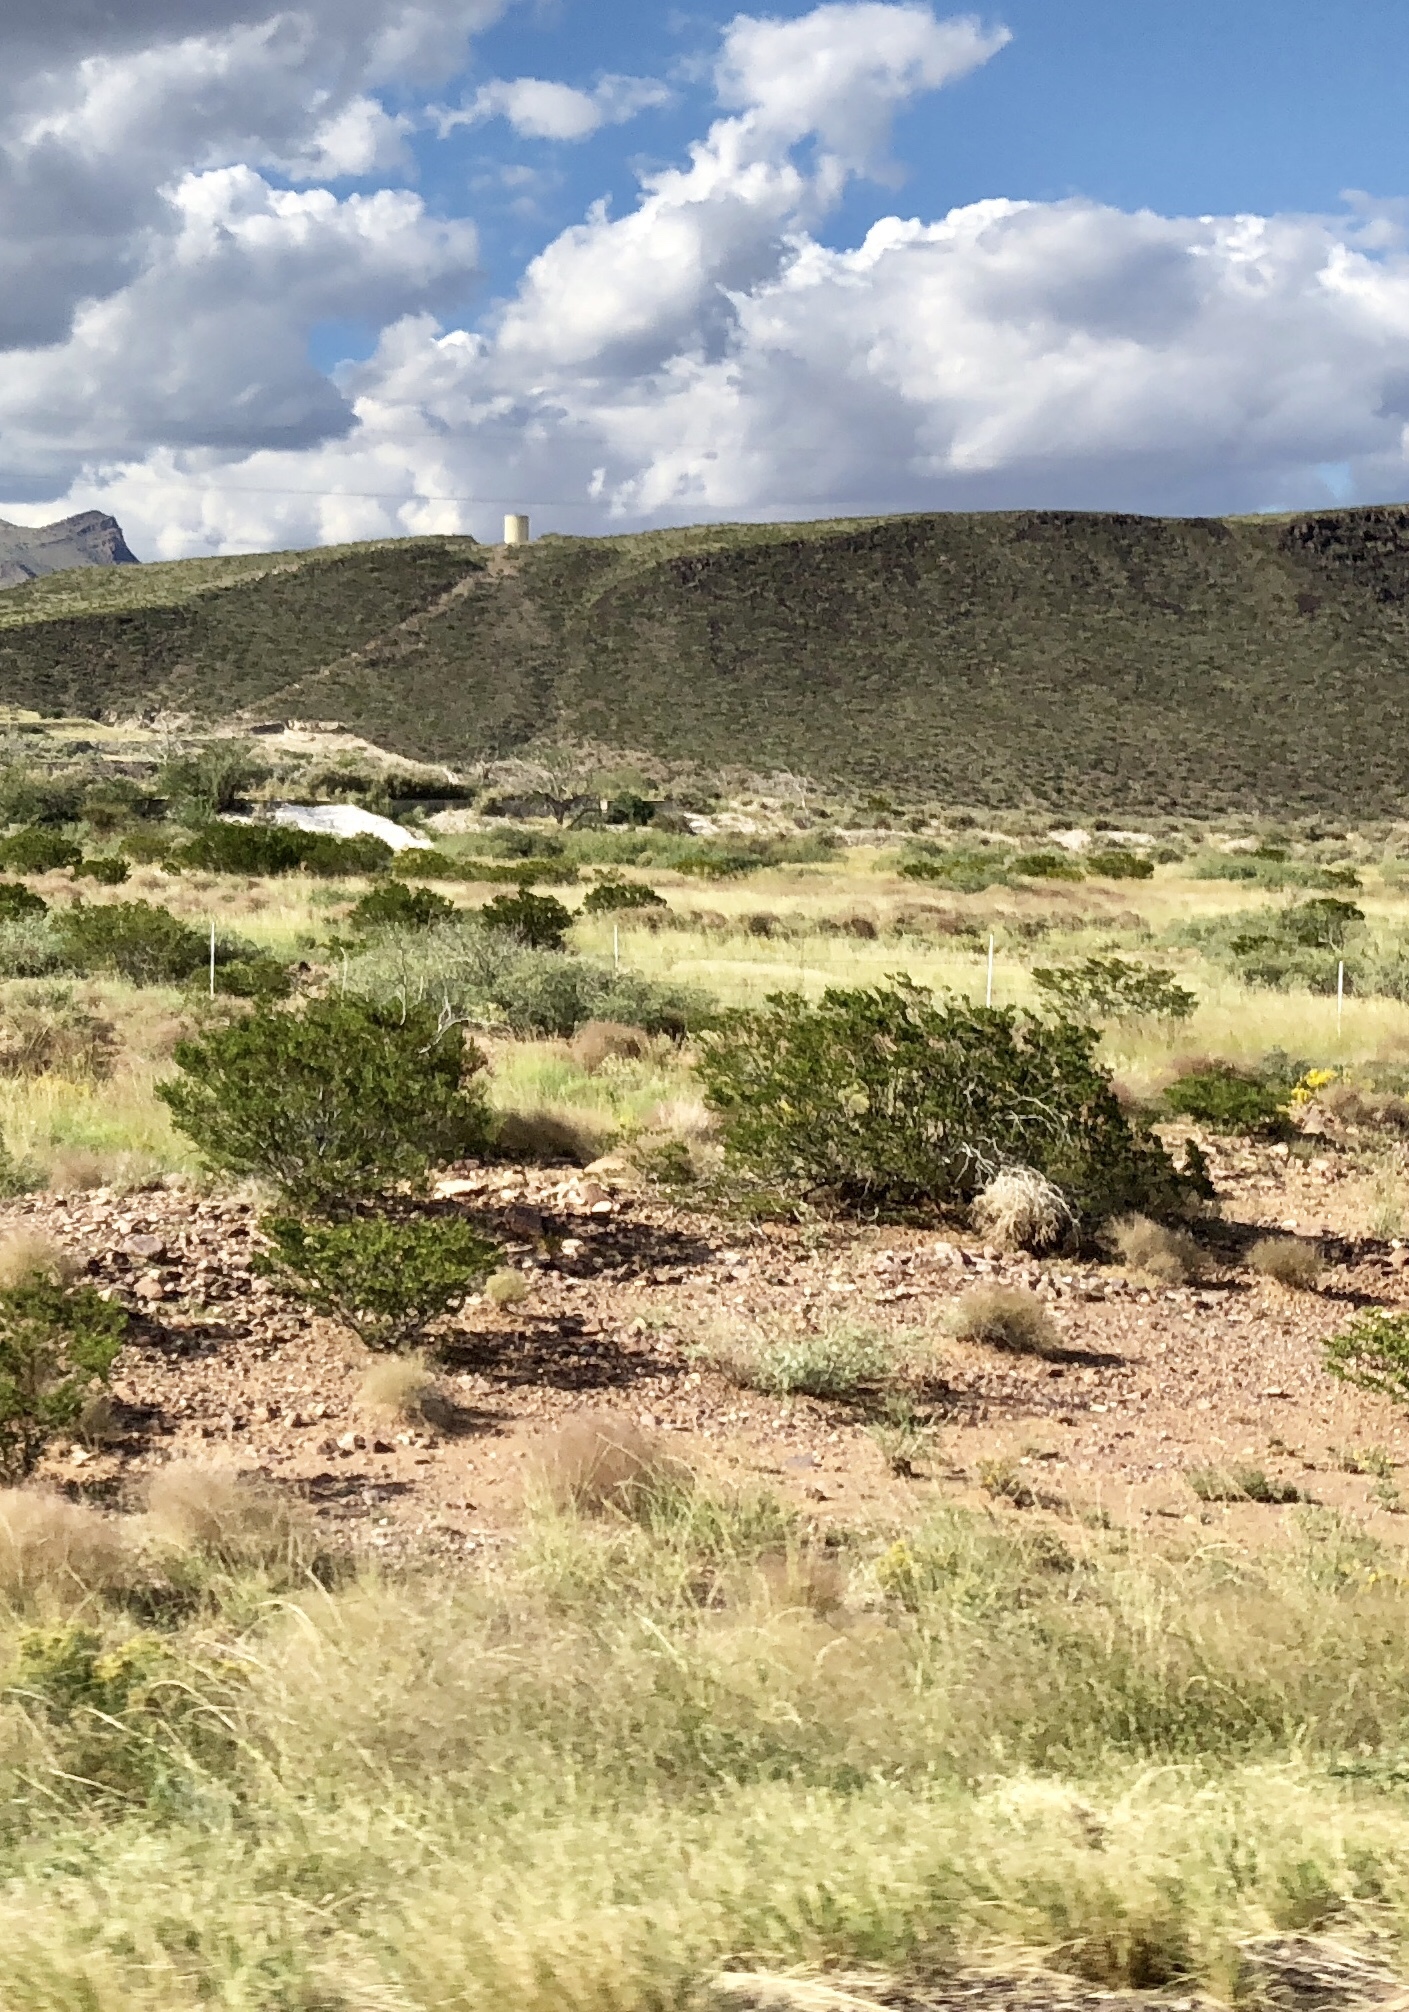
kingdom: Plantae
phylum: Tracheophyta
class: Magnoliopsida
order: Zygophyllales
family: Zygophyllaceae
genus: Larrea
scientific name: Larrea tridentata
